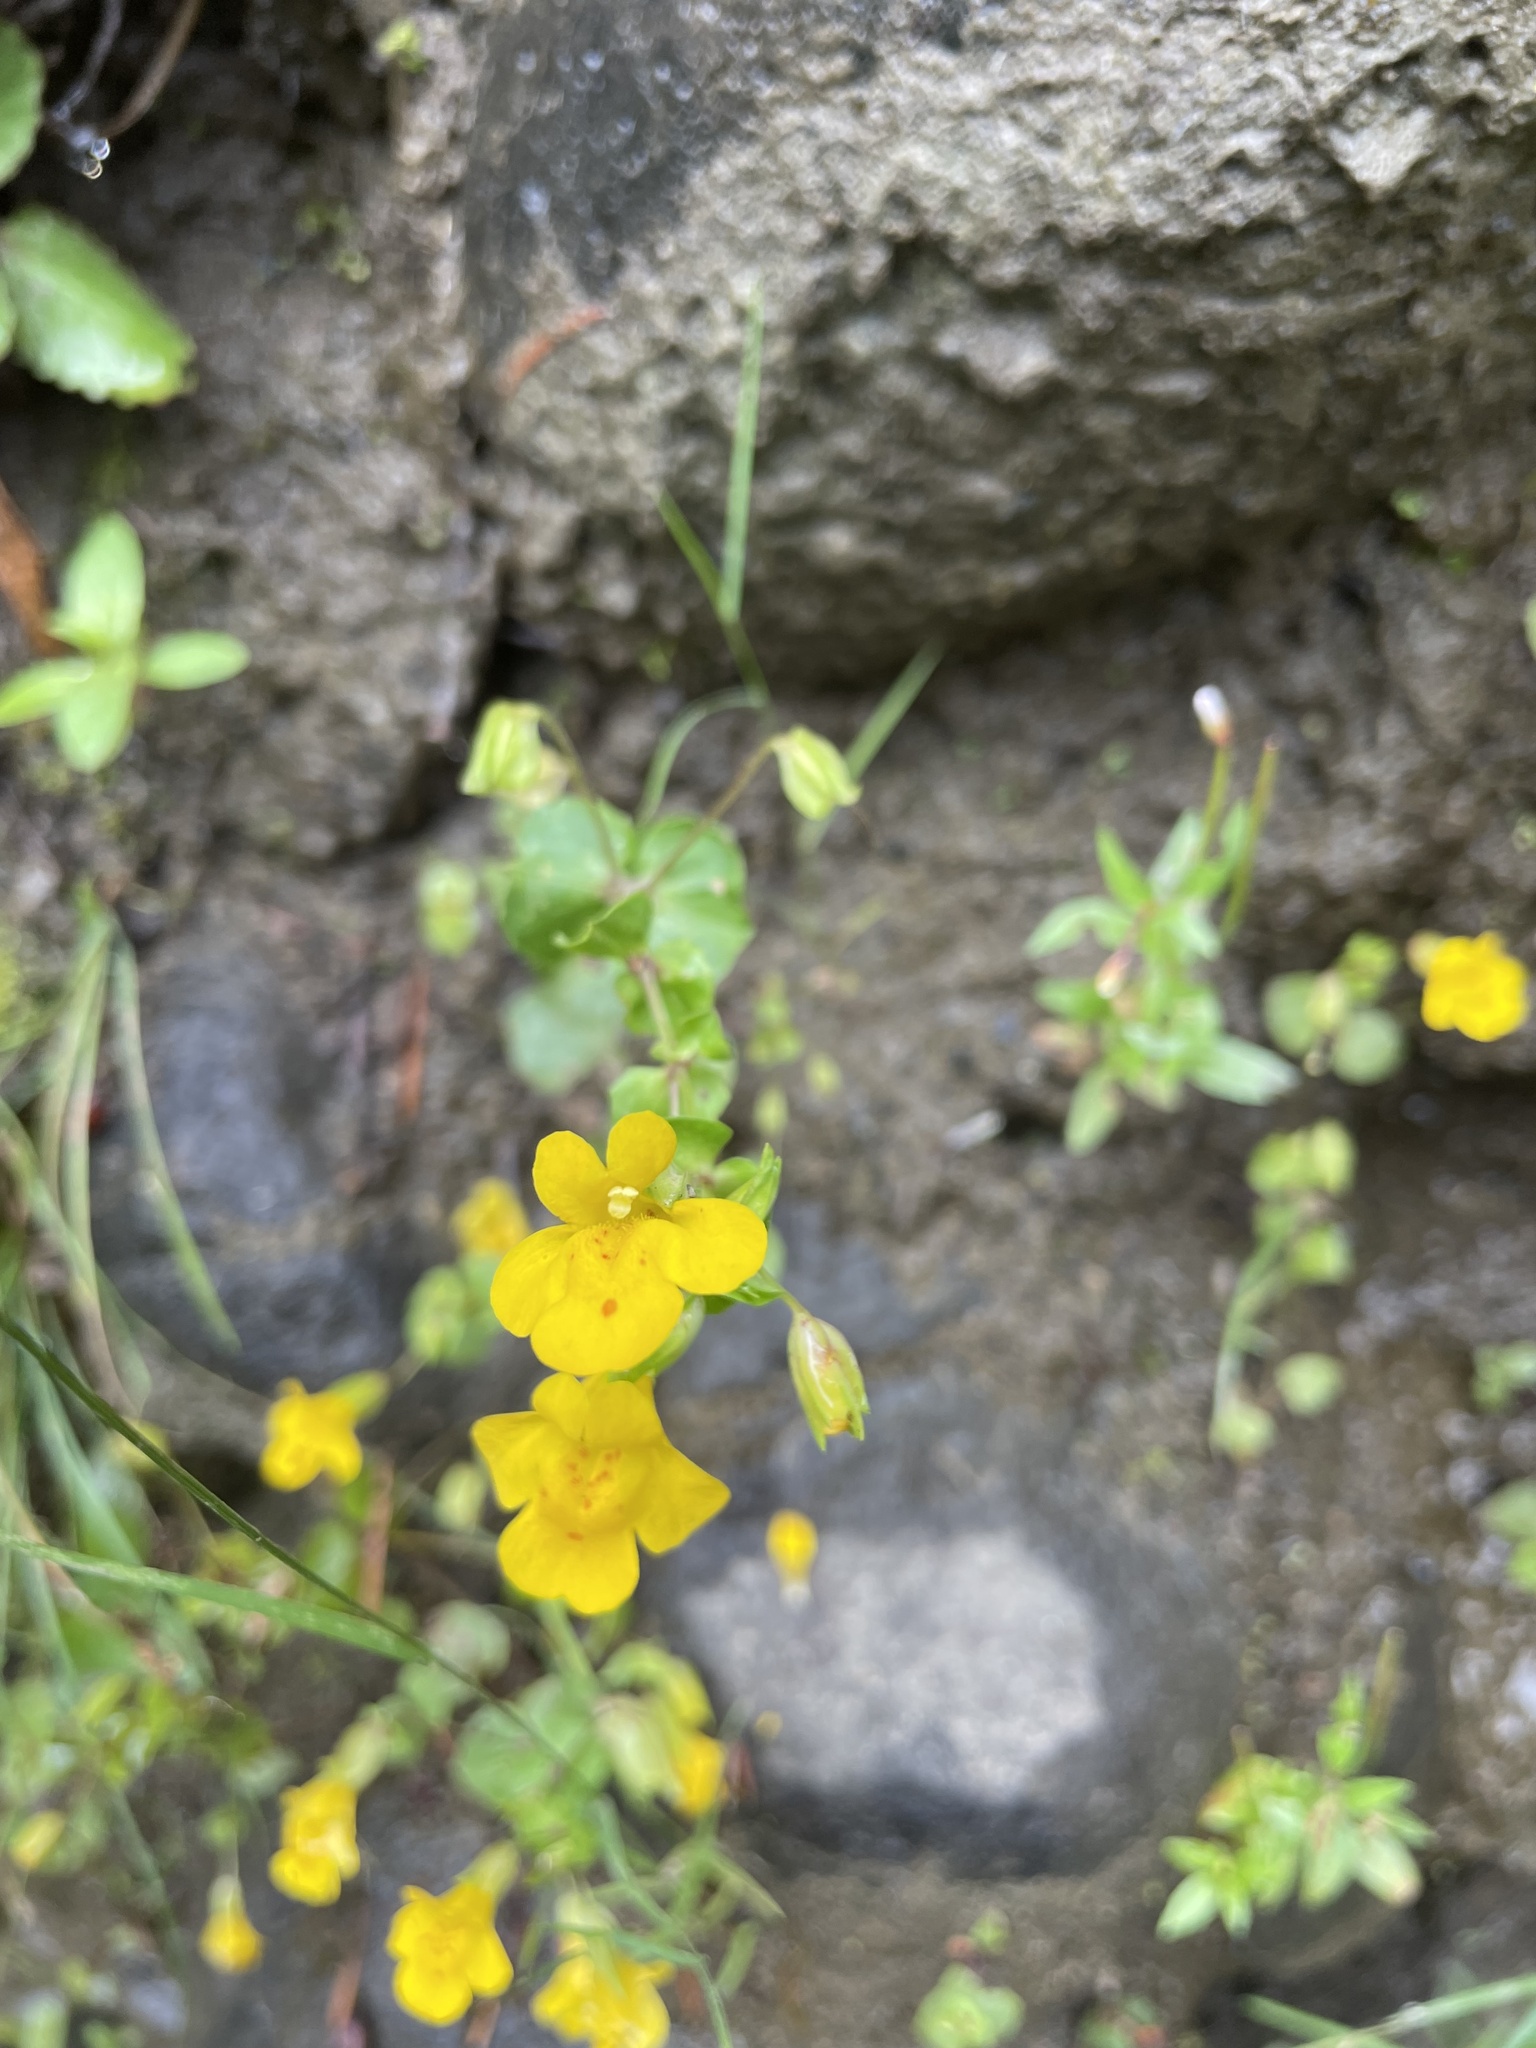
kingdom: Plantae
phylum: Tracheophyta
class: Magnoliopsida
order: Lamiales
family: Phrymaceae
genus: Erythranthe
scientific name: Erythranthe guttata
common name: Monkeyflower
